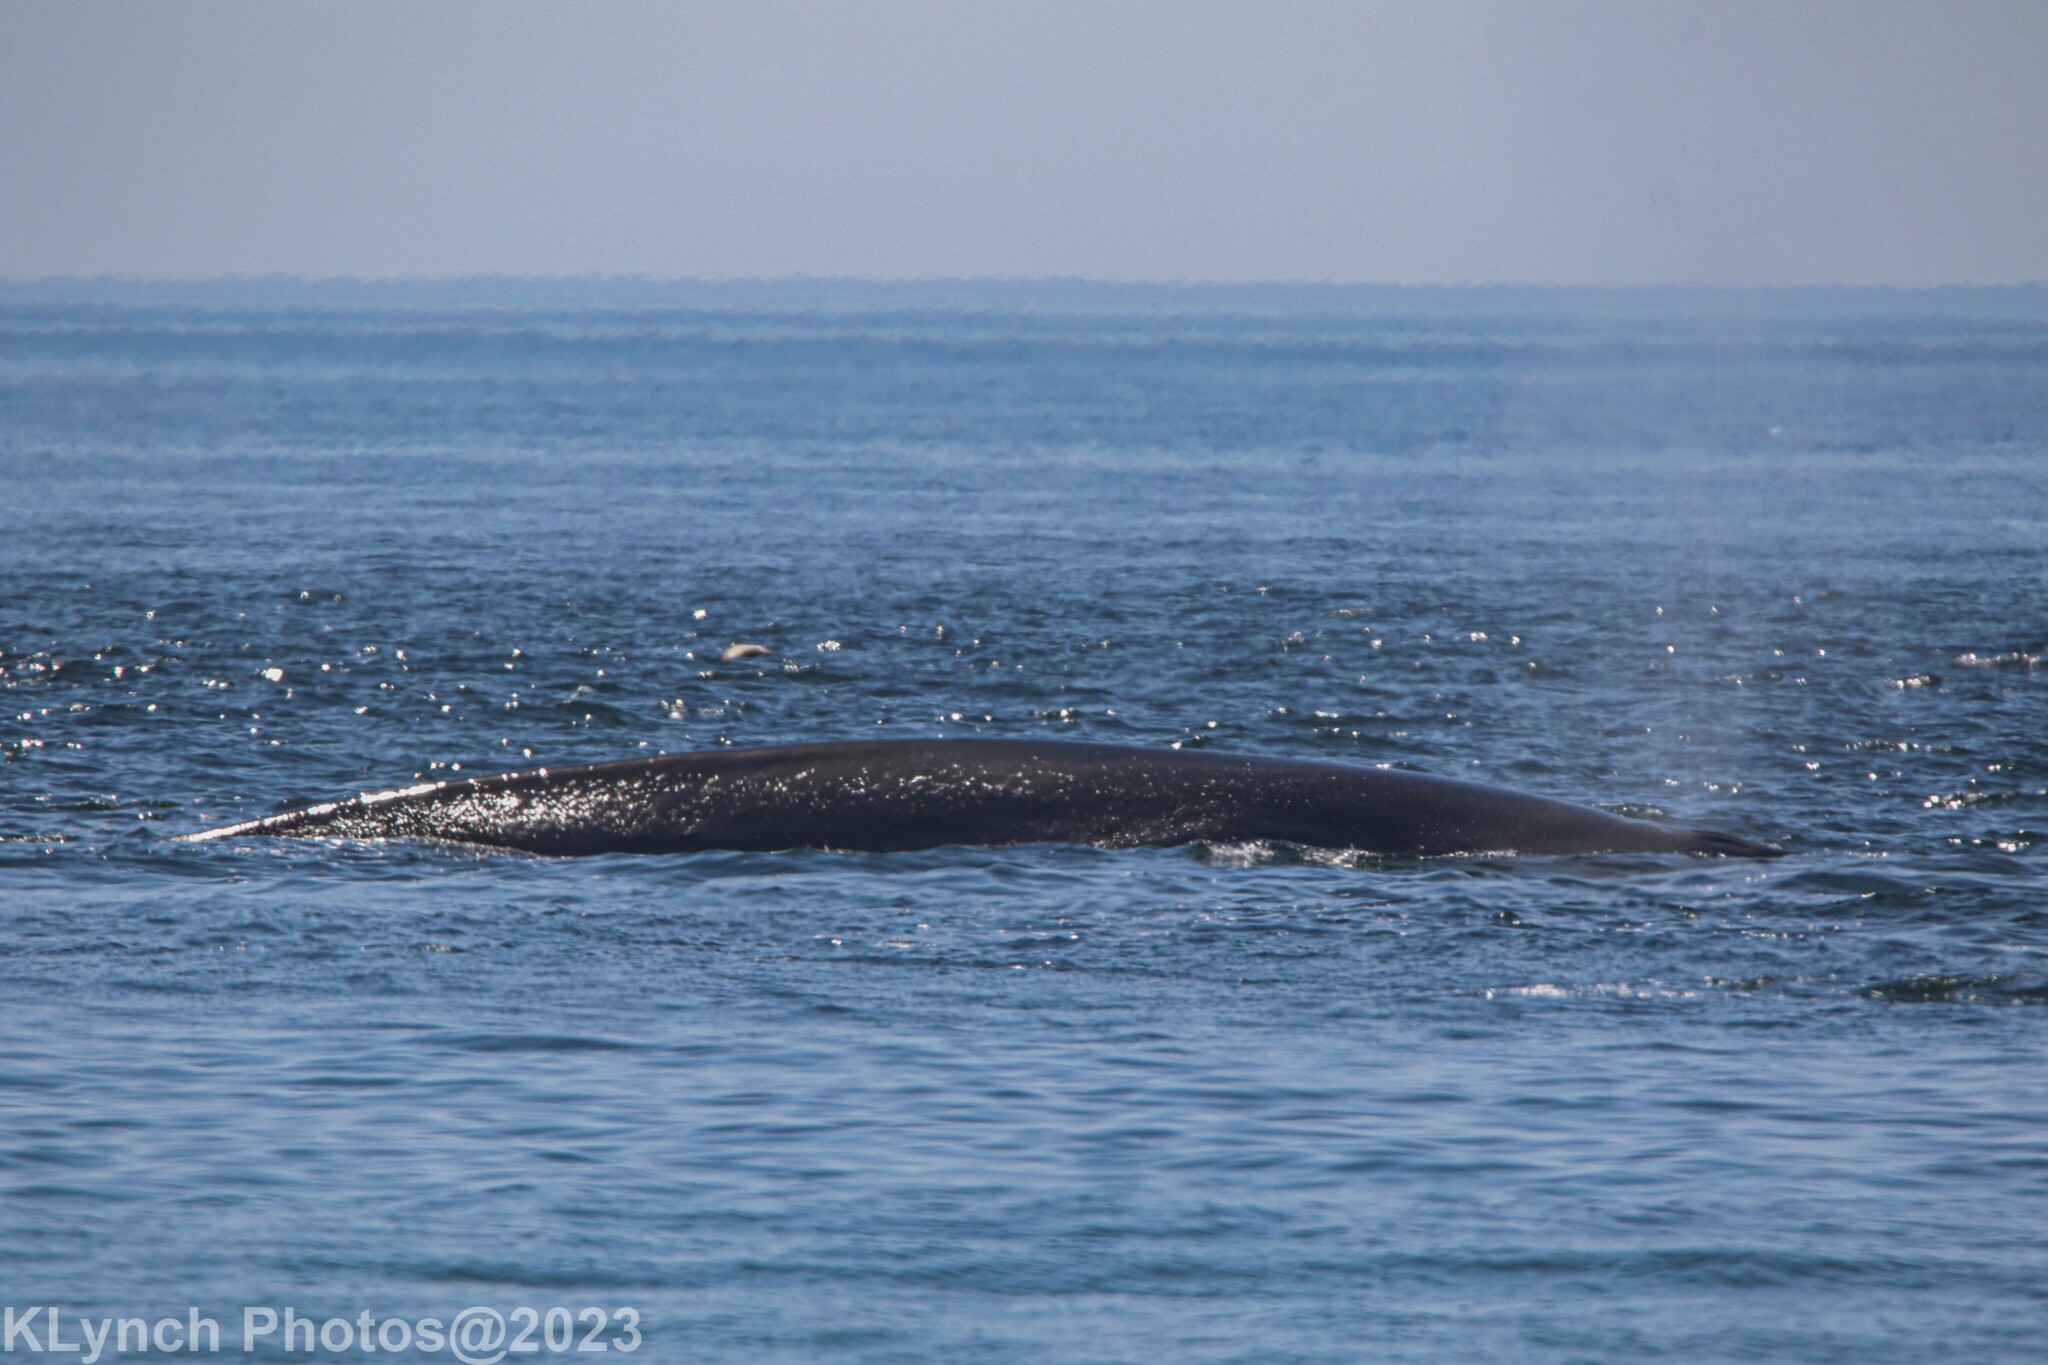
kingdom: Animalia
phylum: Chordata
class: Mammalia
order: Cetacea
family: Balaenopteridae
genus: Balaenoptera
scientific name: Balaenoptera physalus
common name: Fin whale
